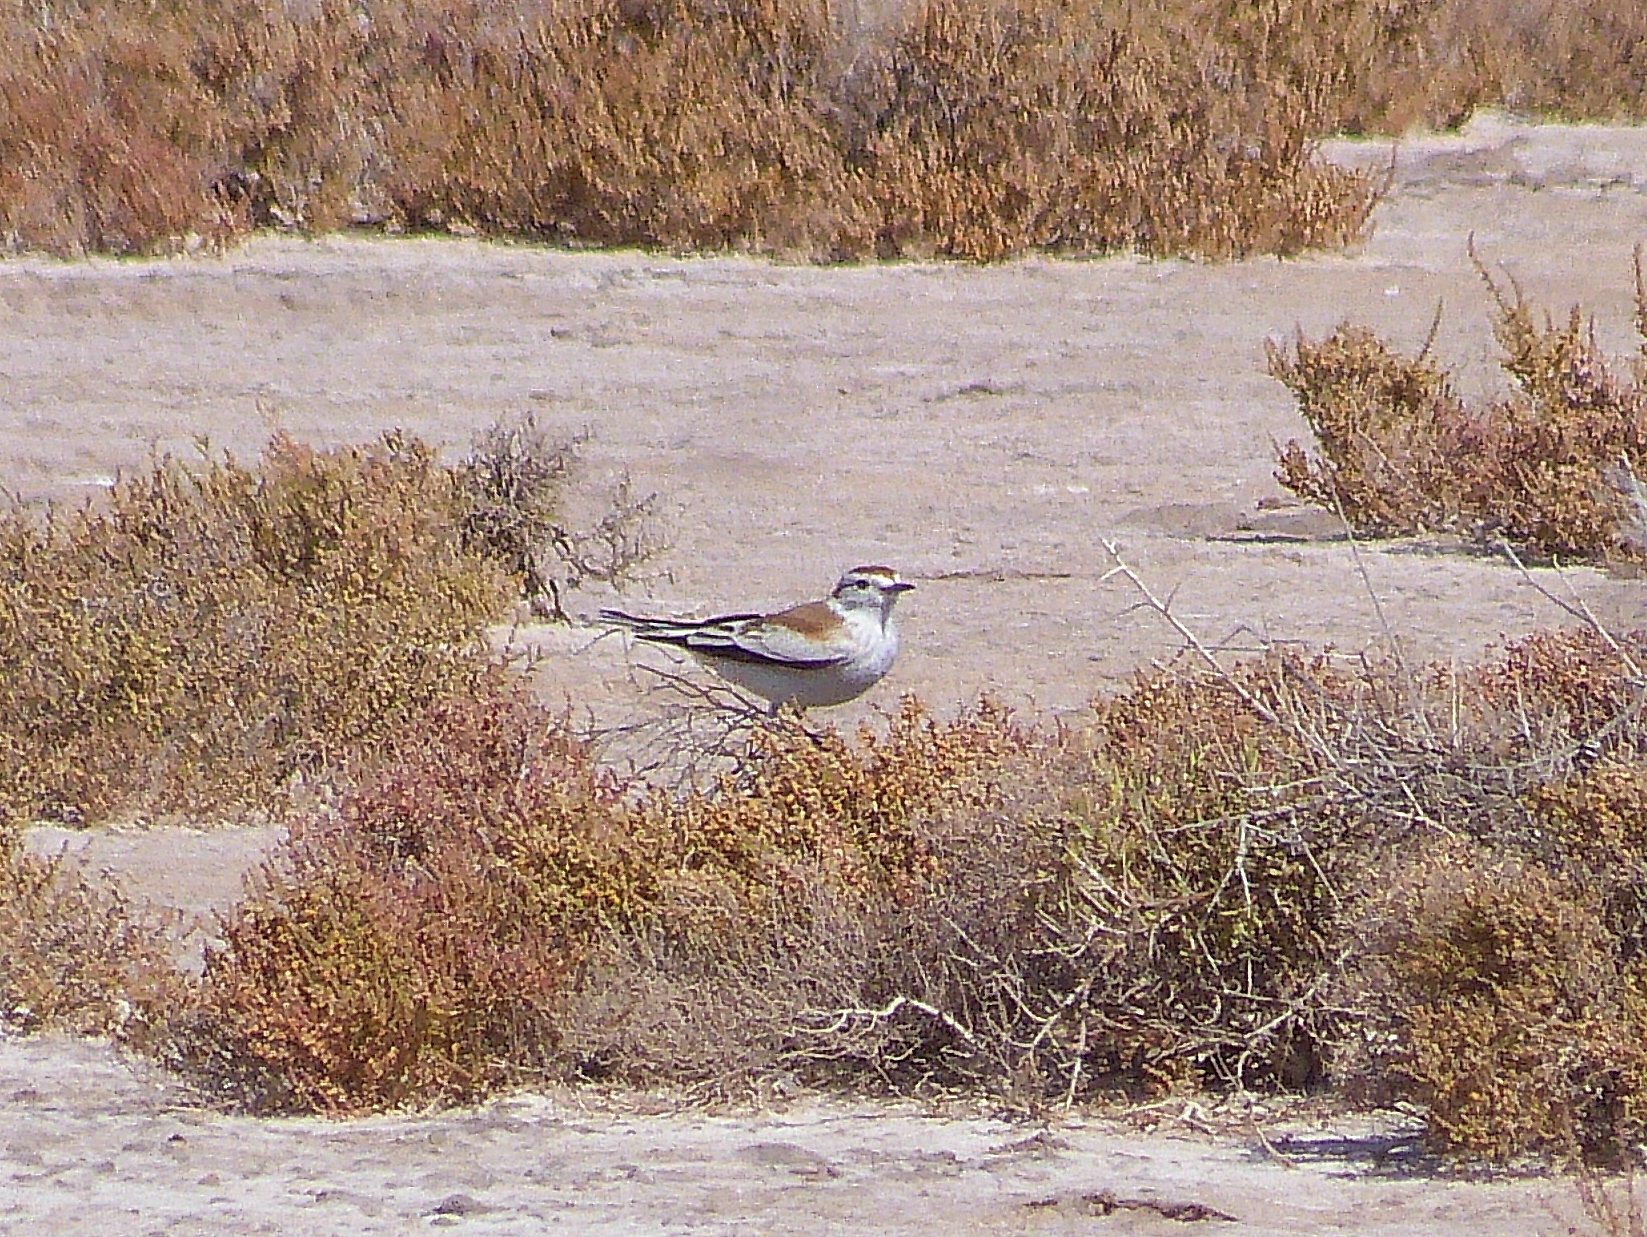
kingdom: Animalia
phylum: Chordata
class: Aves
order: Passeriformes
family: Tyrannidae
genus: Neoxolmis
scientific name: Neoxolmis salinarum
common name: Salinas monjita
